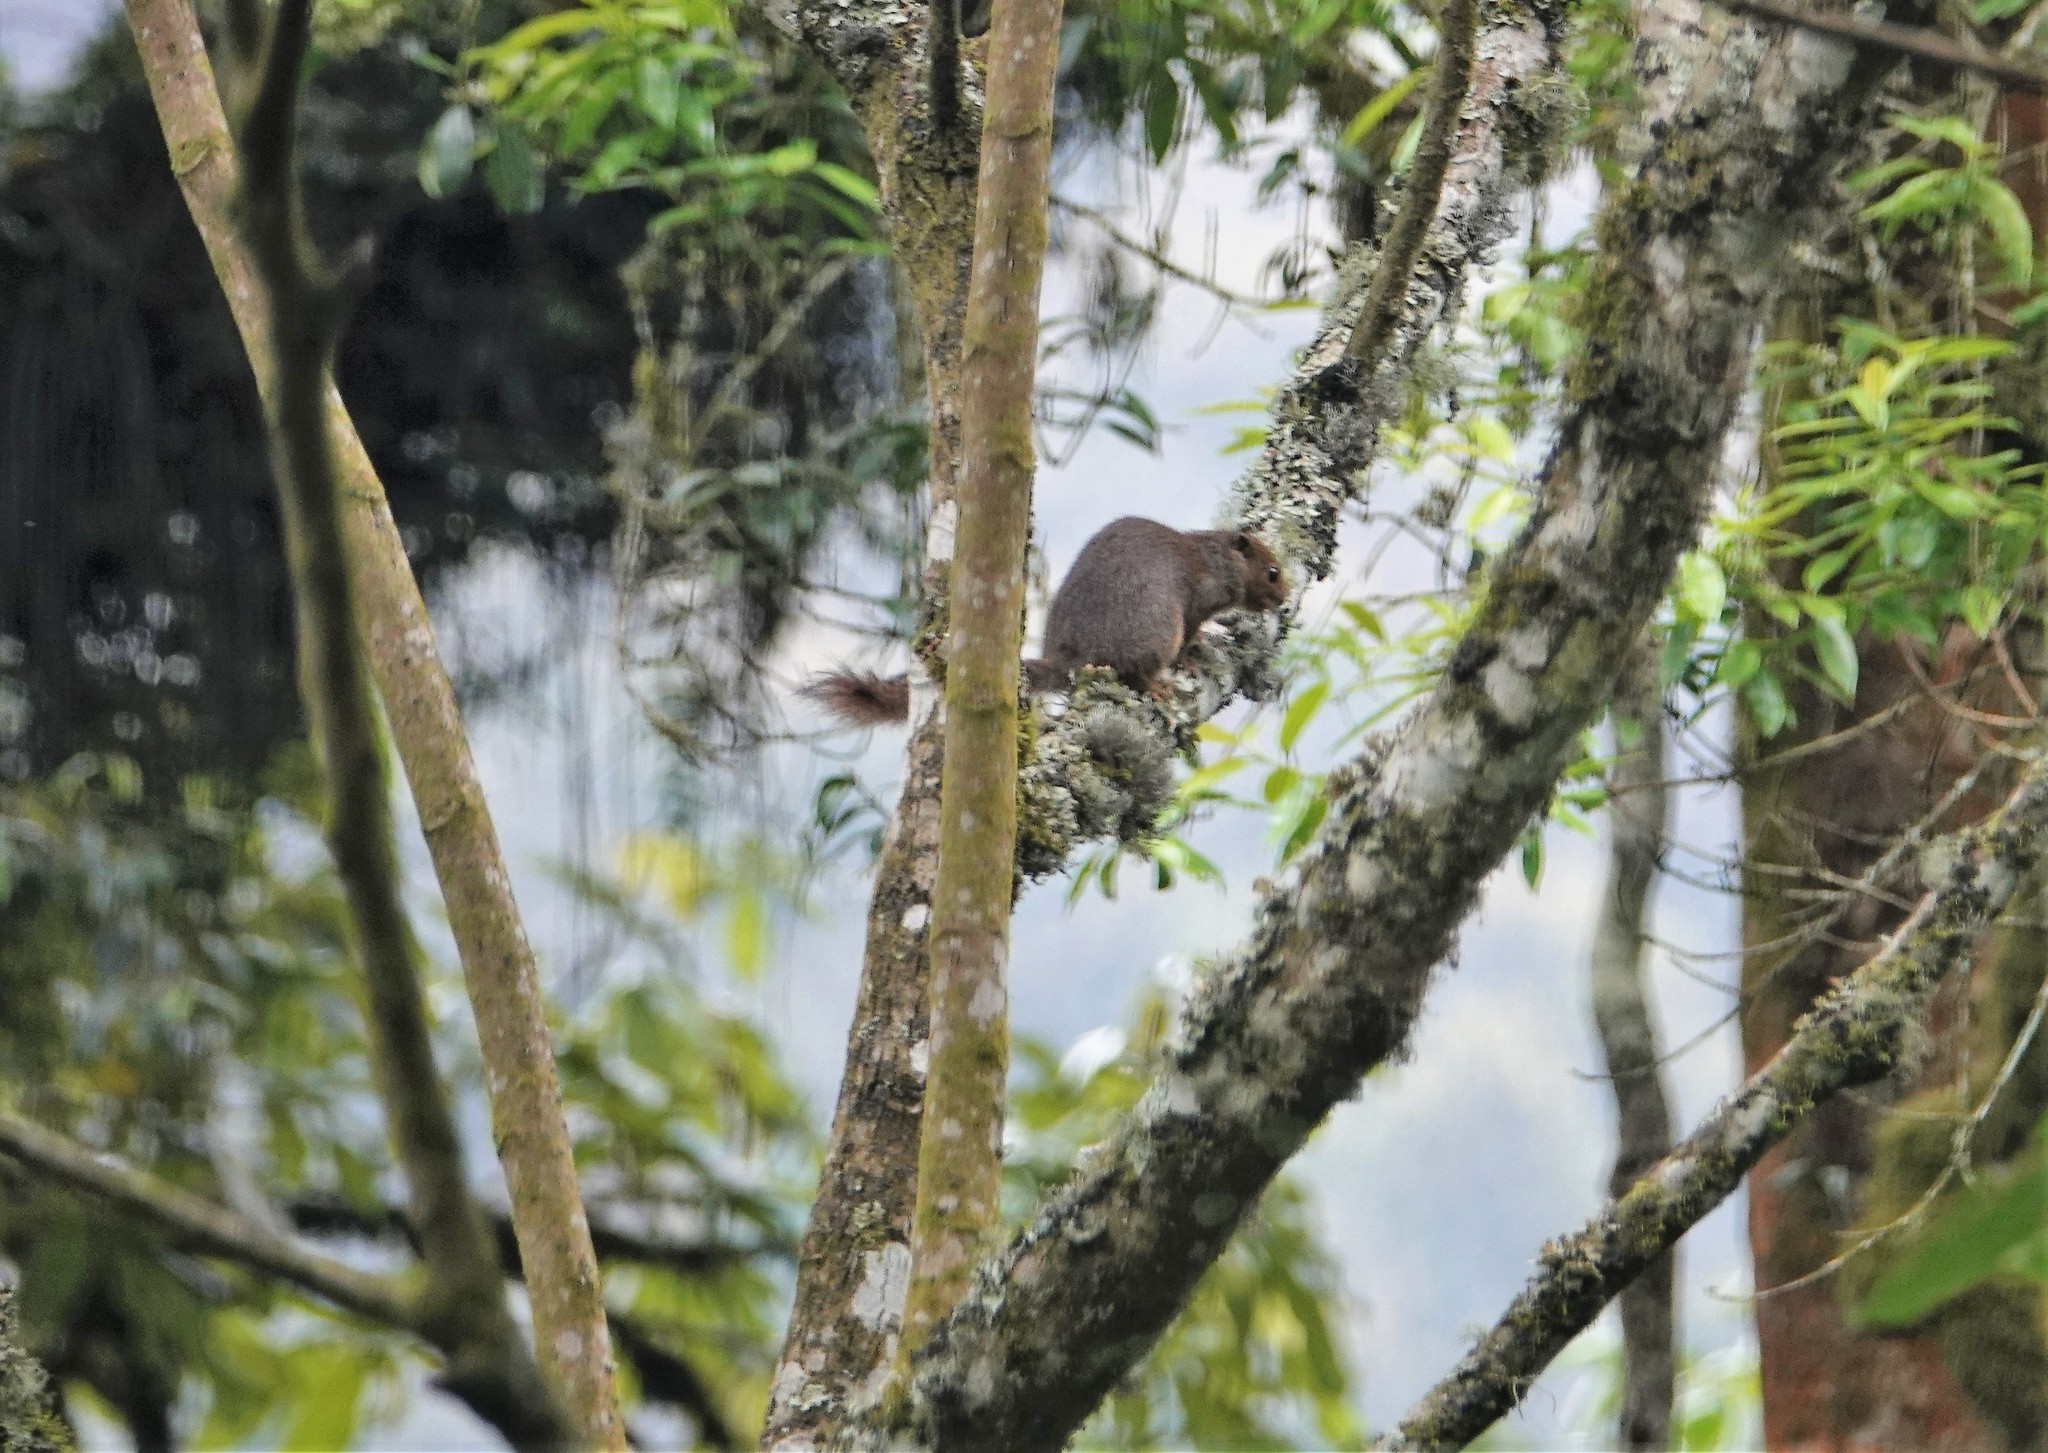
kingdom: Animalia
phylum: Chordata
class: Mammalia
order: Rodentia
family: Sciuridae
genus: Heliosciurus
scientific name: Heliosciurus ruwenzorii
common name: Ruwenzori sun squirrel
